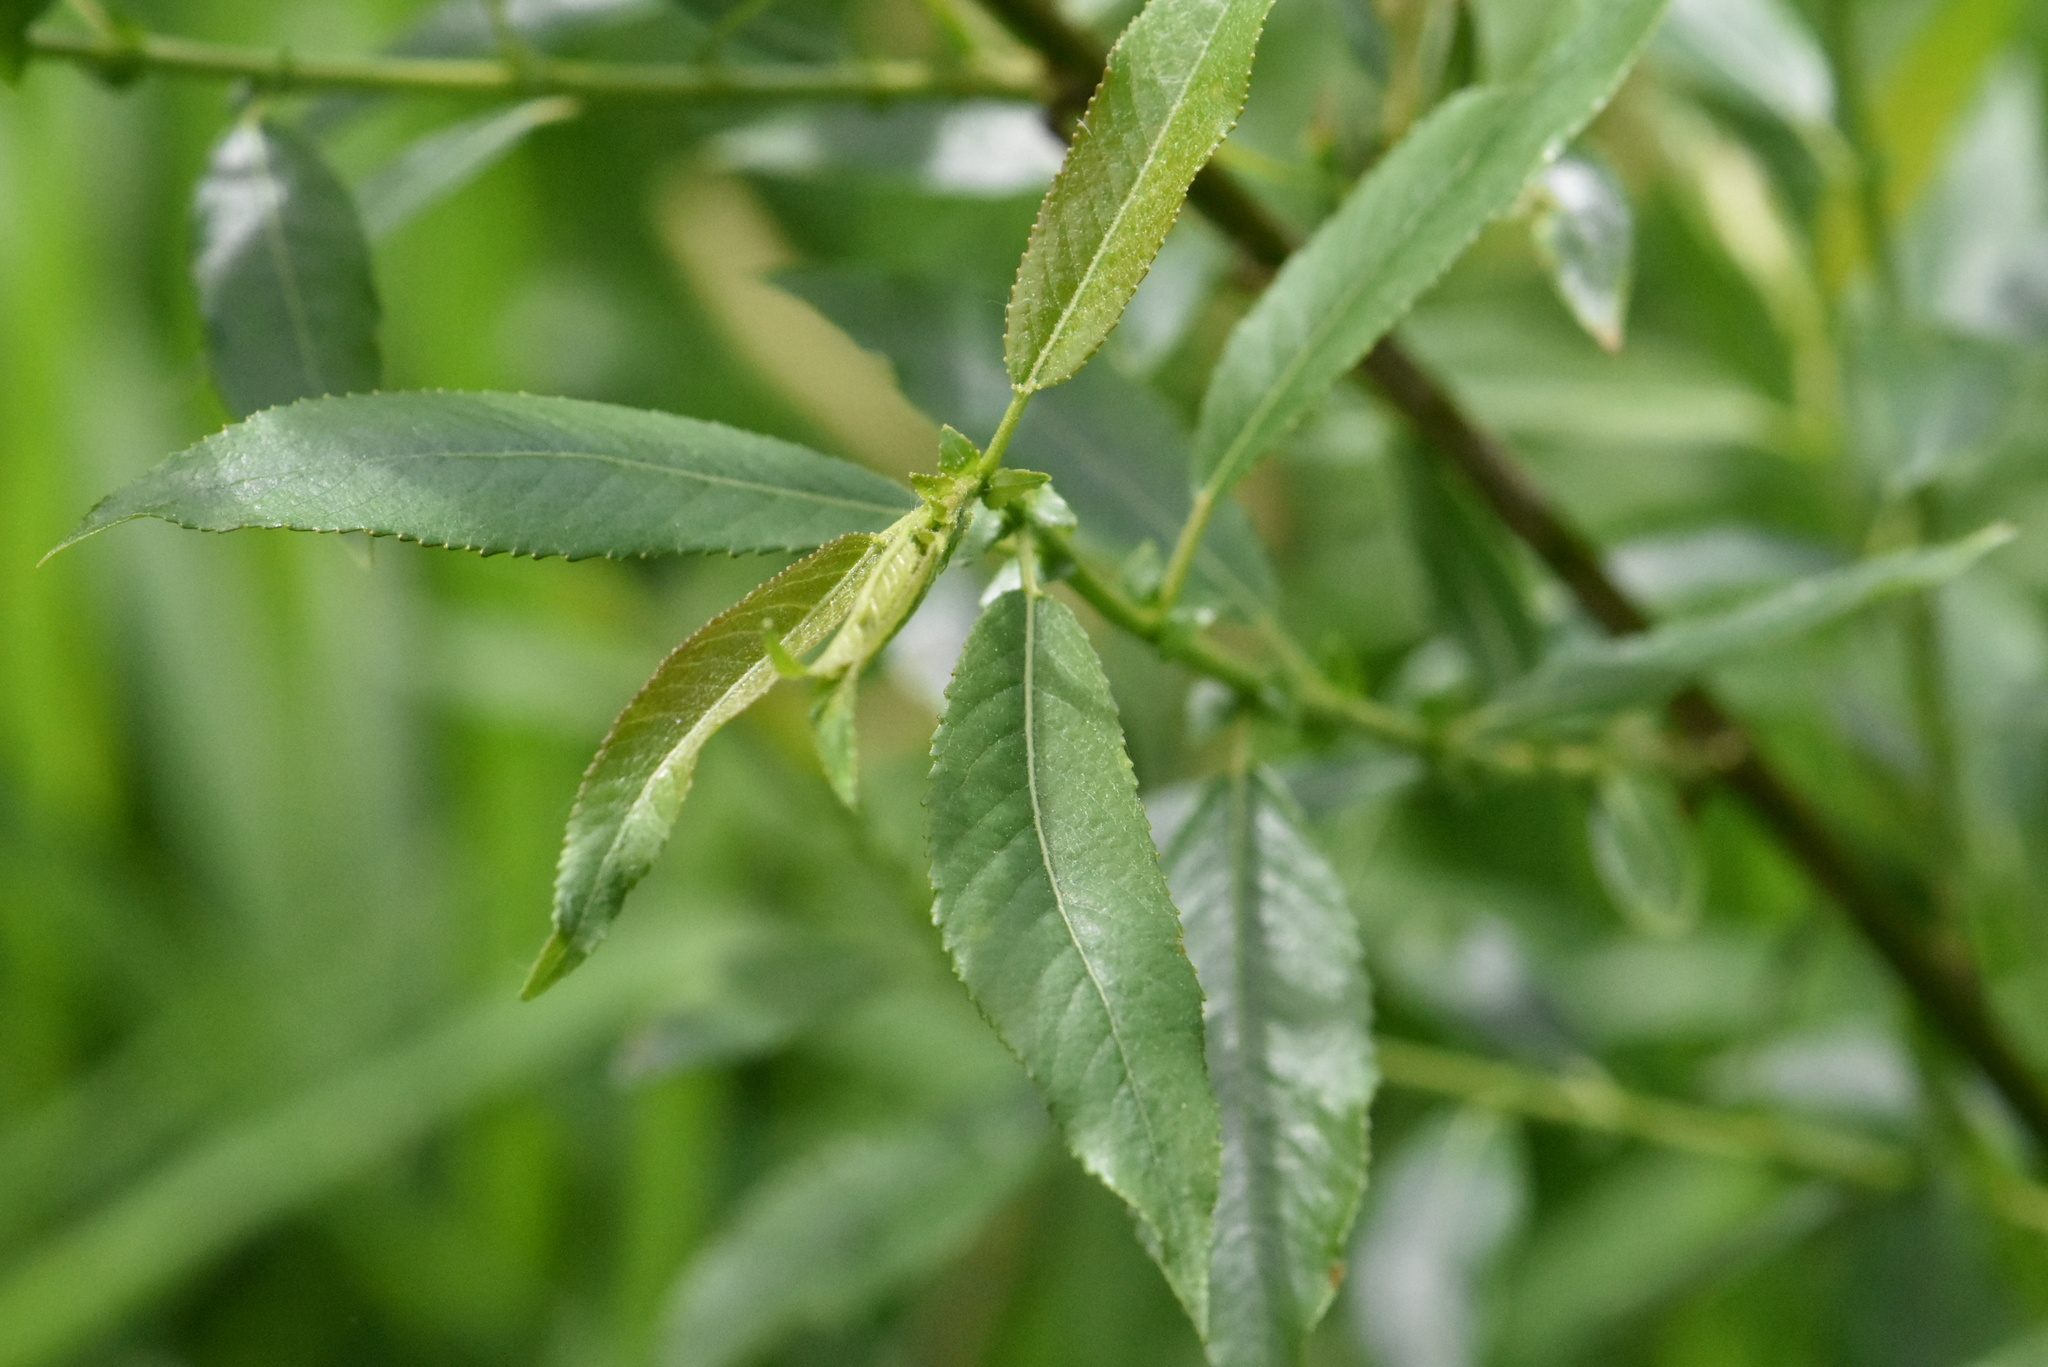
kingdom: Plantae
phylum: Tracheophyta
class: Magnoliopsida
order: Malpighiales
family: Salicaceae
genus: Salix
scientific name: Salix triandra
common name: Almond willow
